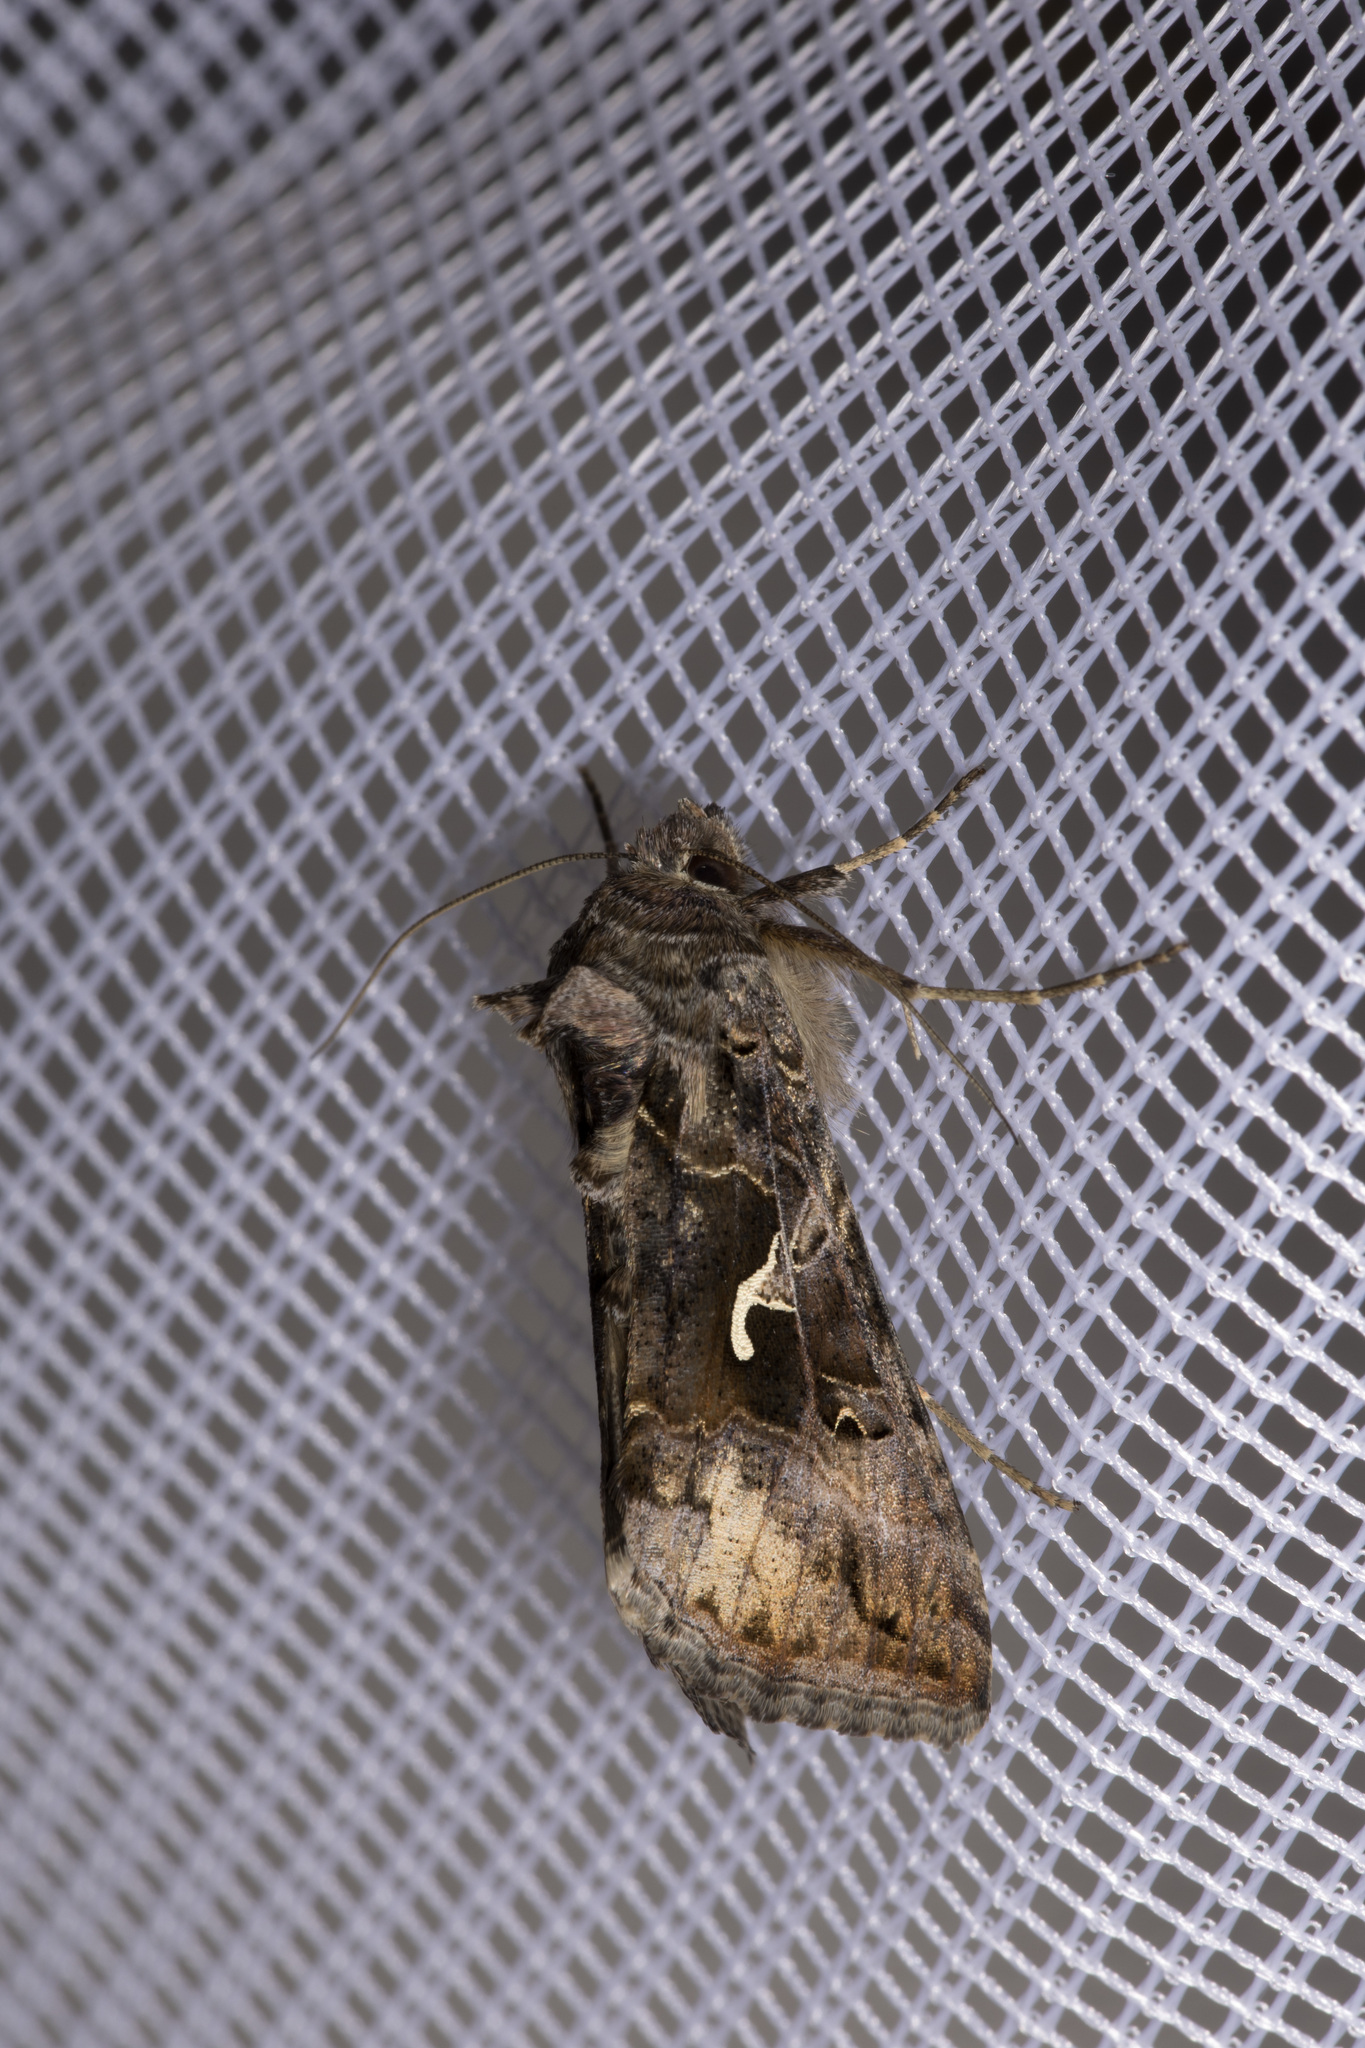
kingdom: Animalia
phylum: Arthropoda
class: Insecta
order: Lepidoptera
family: Noctuidae
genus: Autographa
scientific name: Autographa gamma
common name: Silver y
